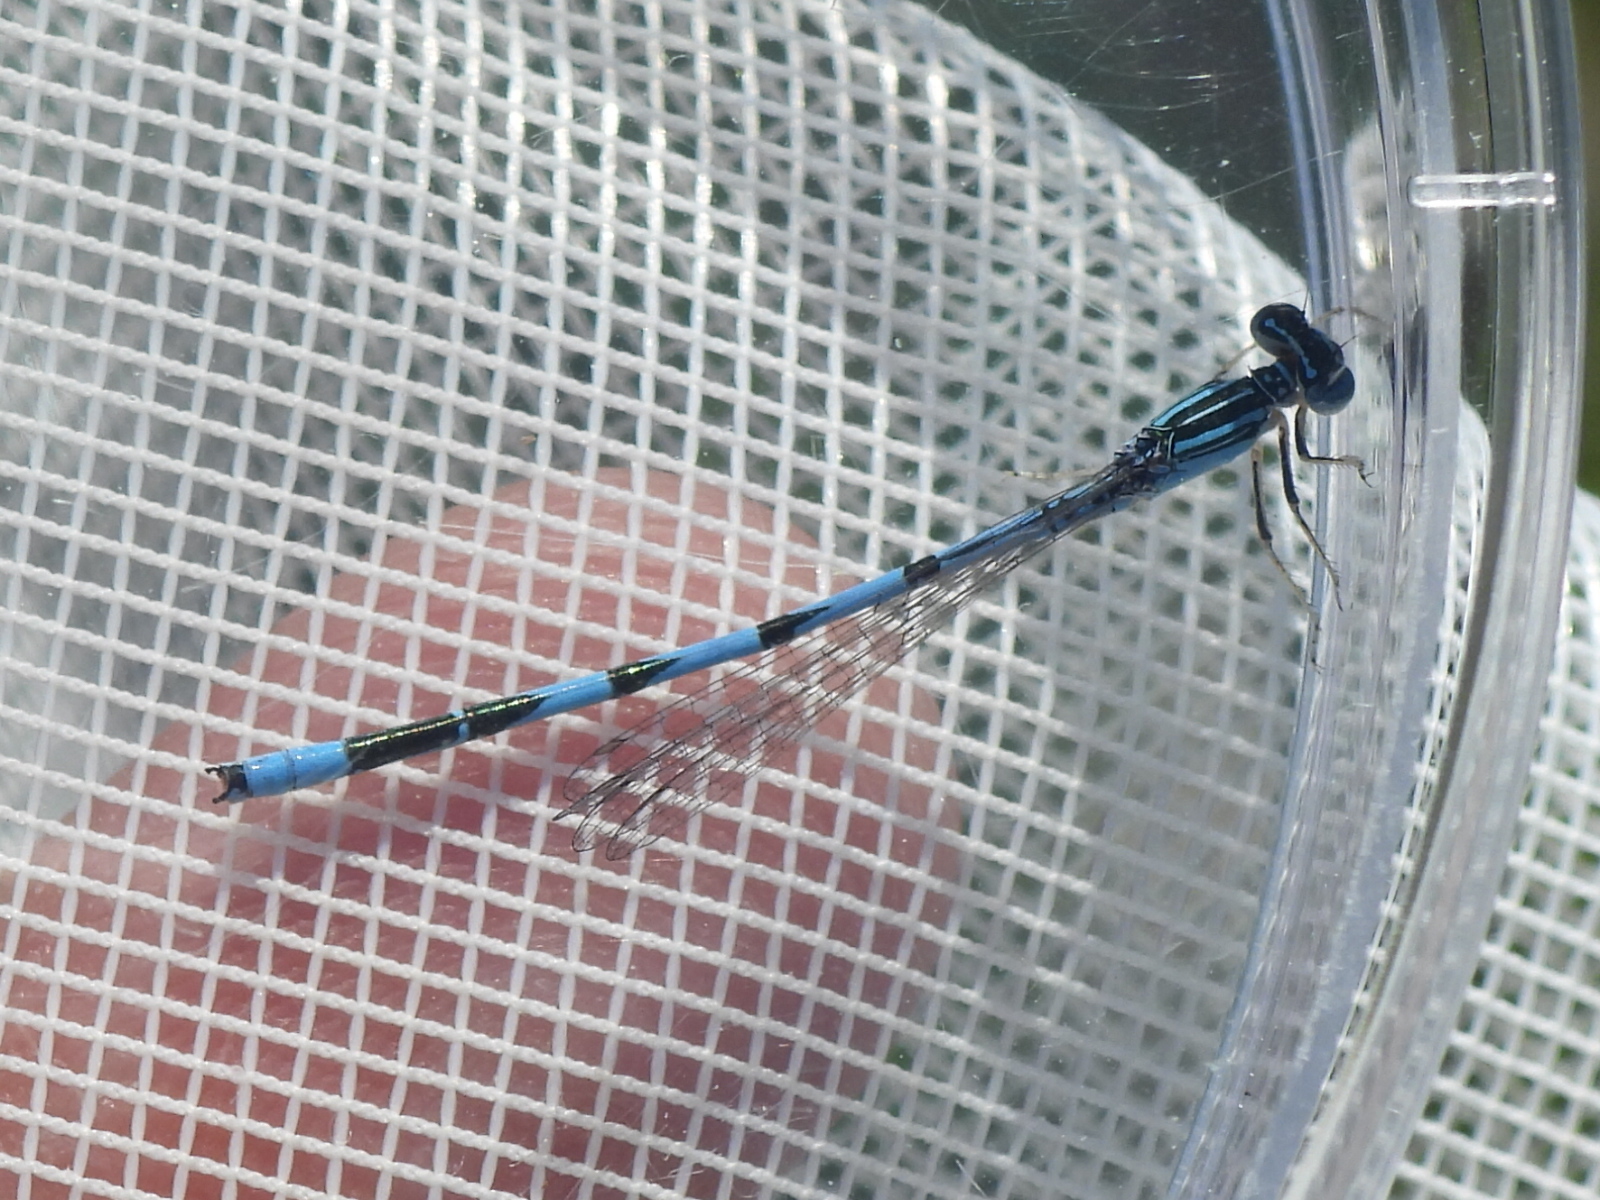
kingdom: Animalia
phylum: Arthropoda
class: Insecta
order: Odonata
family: Coenagrionidae
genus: Enallagma
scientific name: Enallagma basidens
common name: Double-striped bluet
